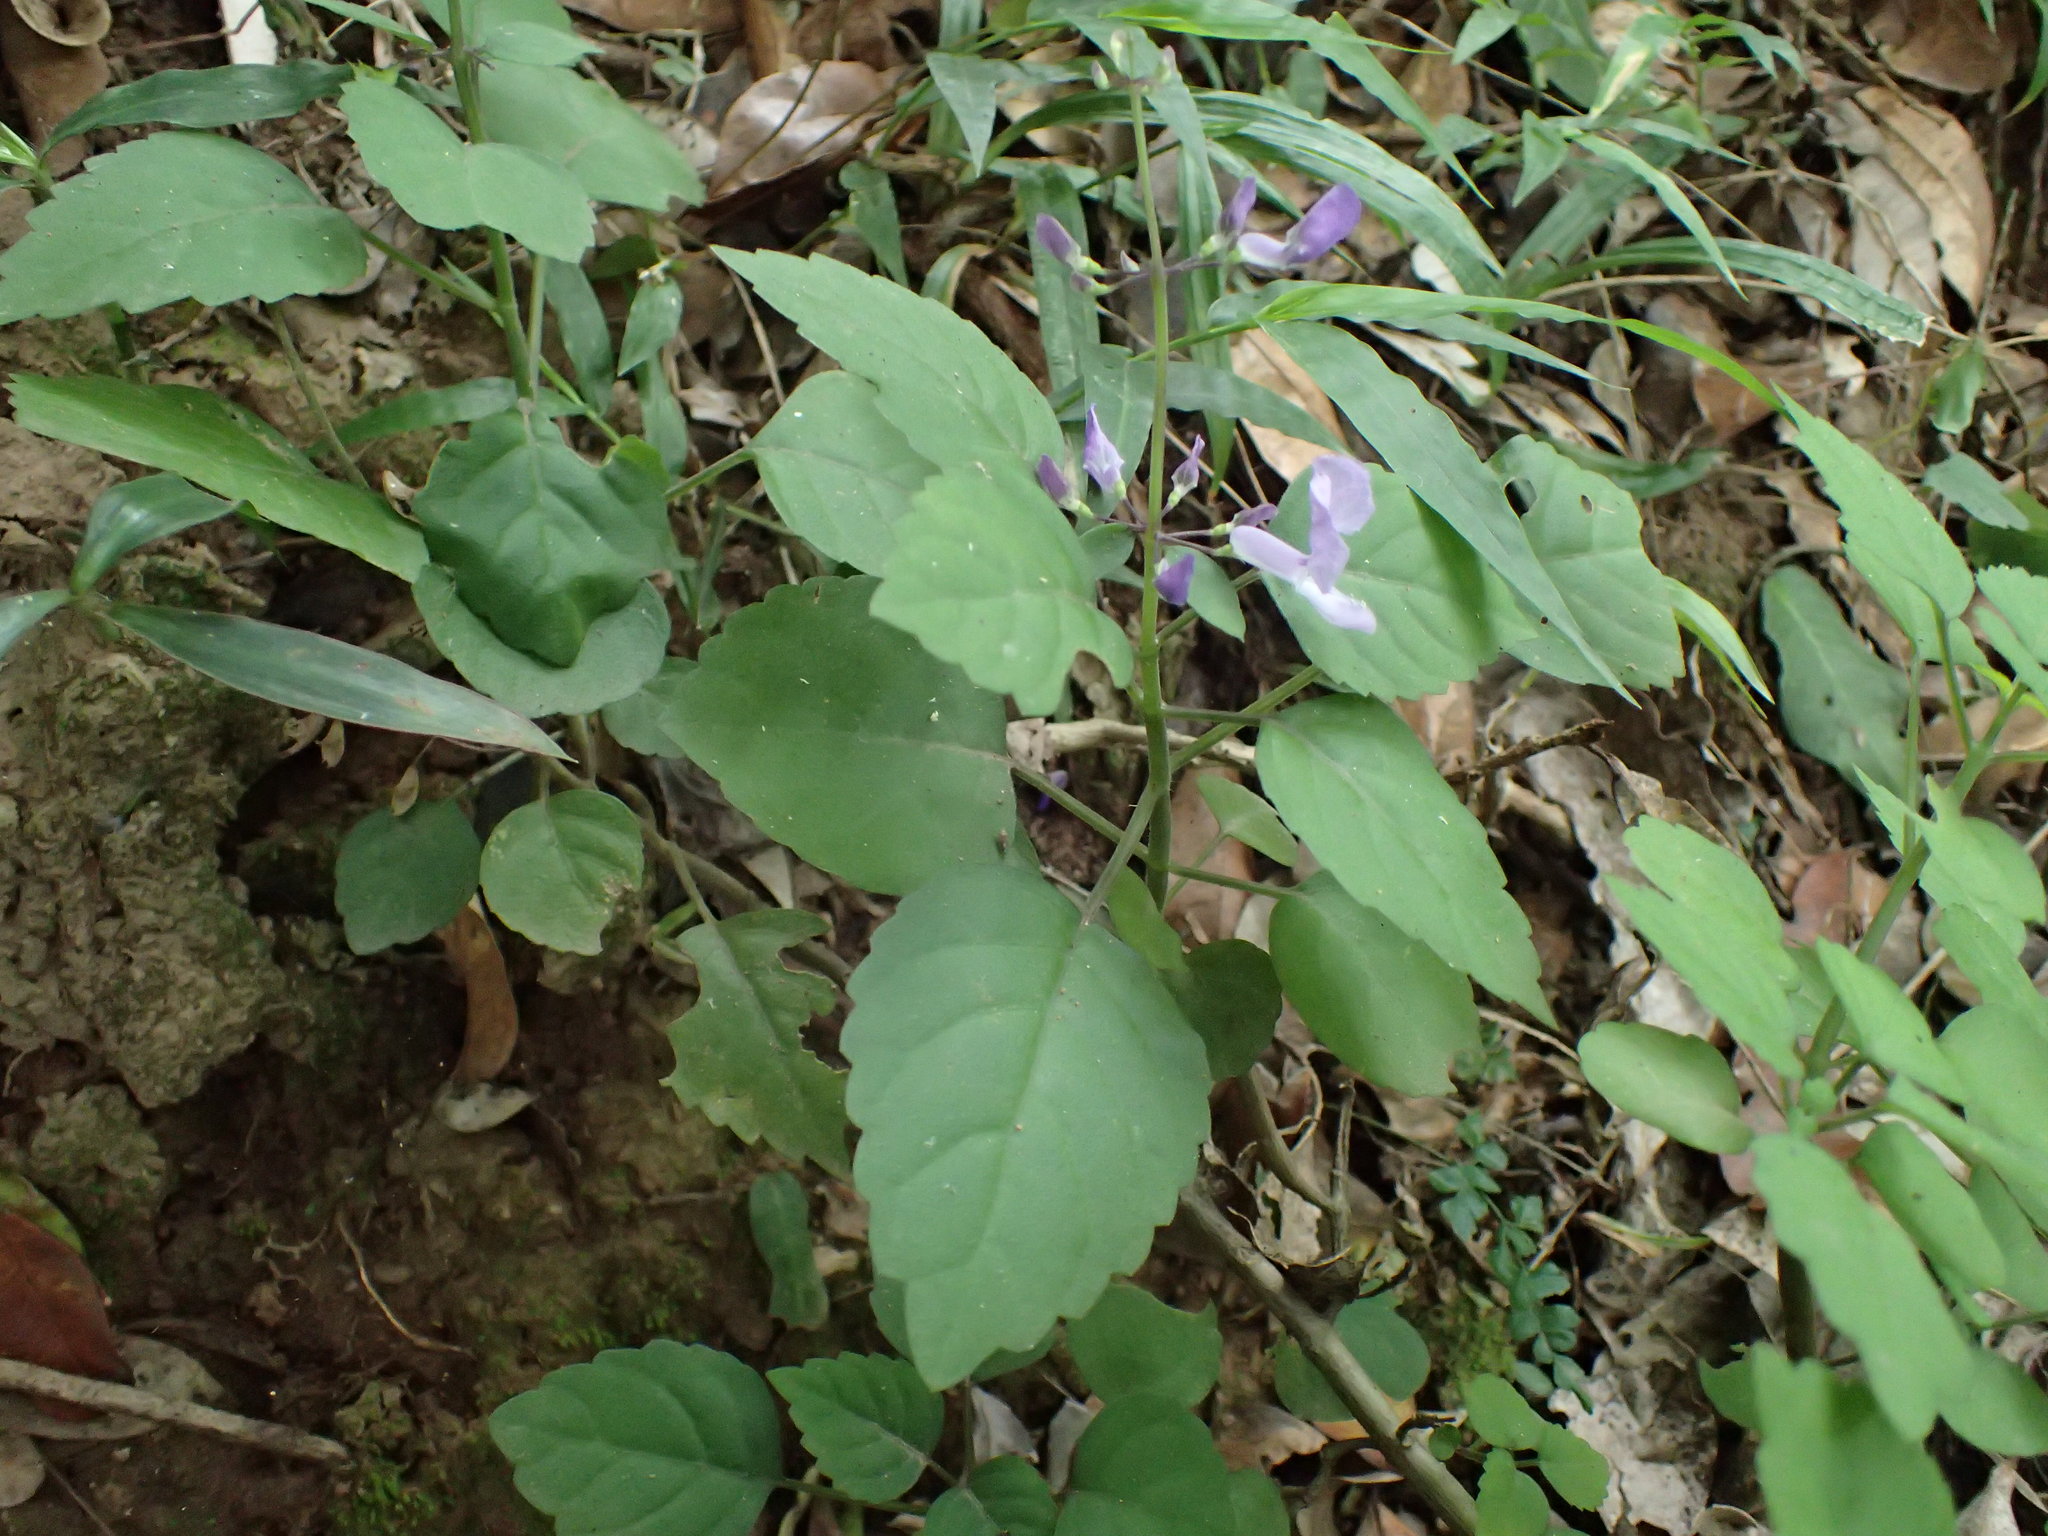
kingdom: Plantae
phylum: Tracheophyta
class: Magnoliopsida
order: Lamiales
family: Lamiaceae
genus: Plectranthus
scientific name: Plectranthus saccatus
